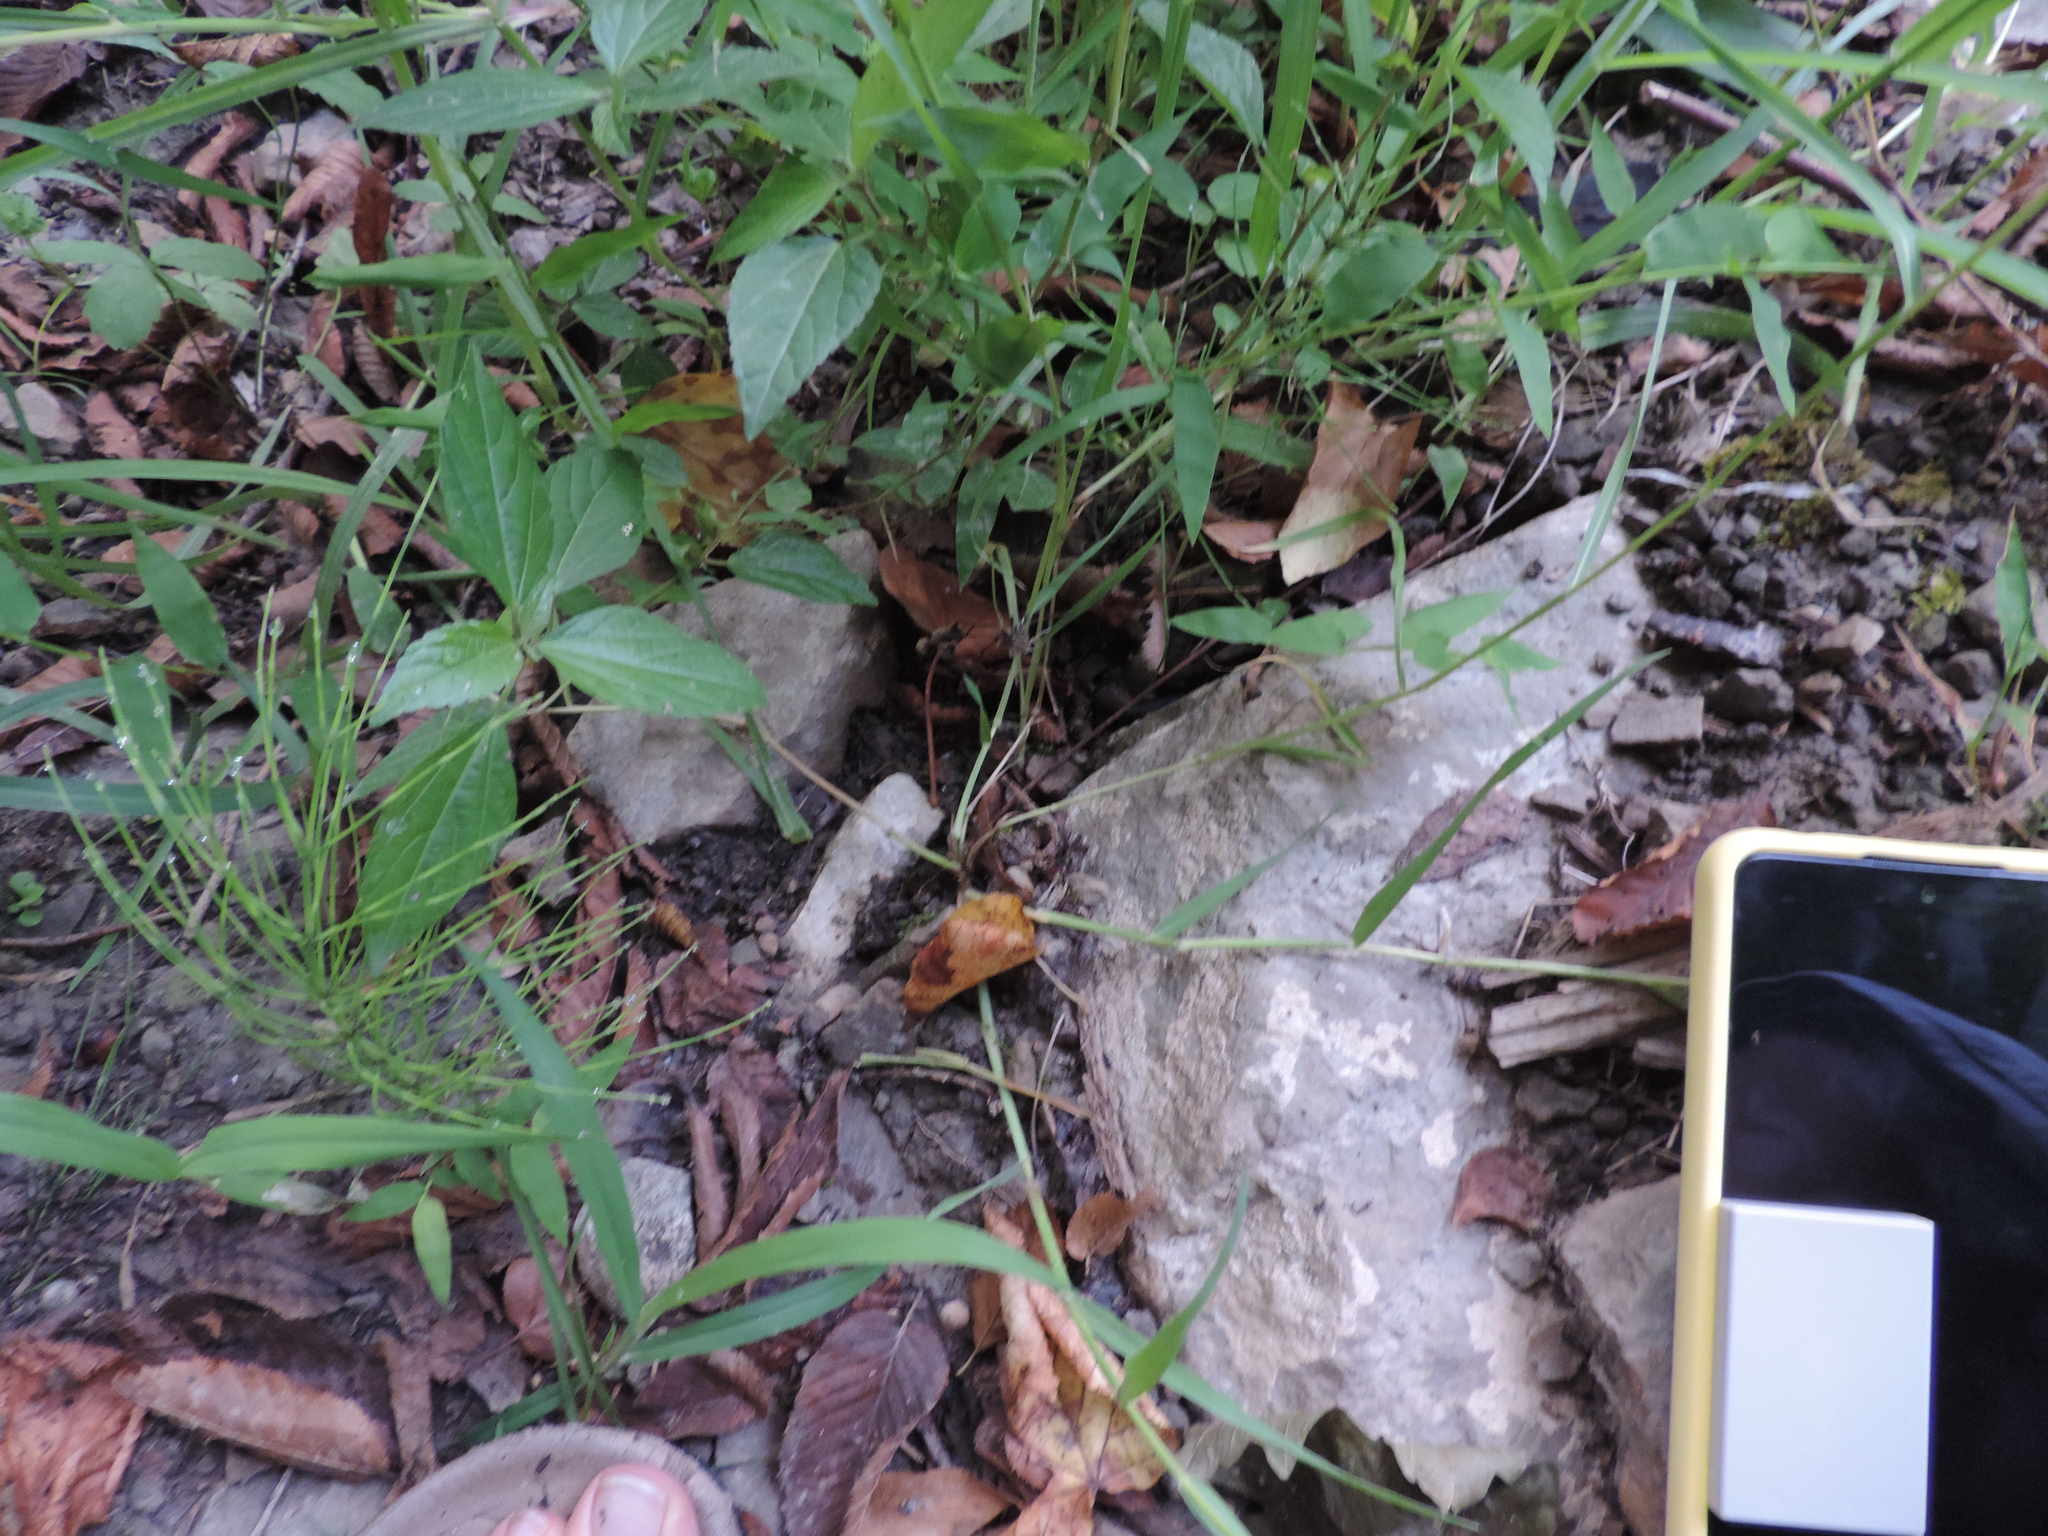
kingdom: Plantae
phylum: Tracheophyta
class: Liliopsida
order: Poales
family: Poaceae
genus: Setaria
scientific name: Setaria pumila
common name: Yellow bristle-grass
